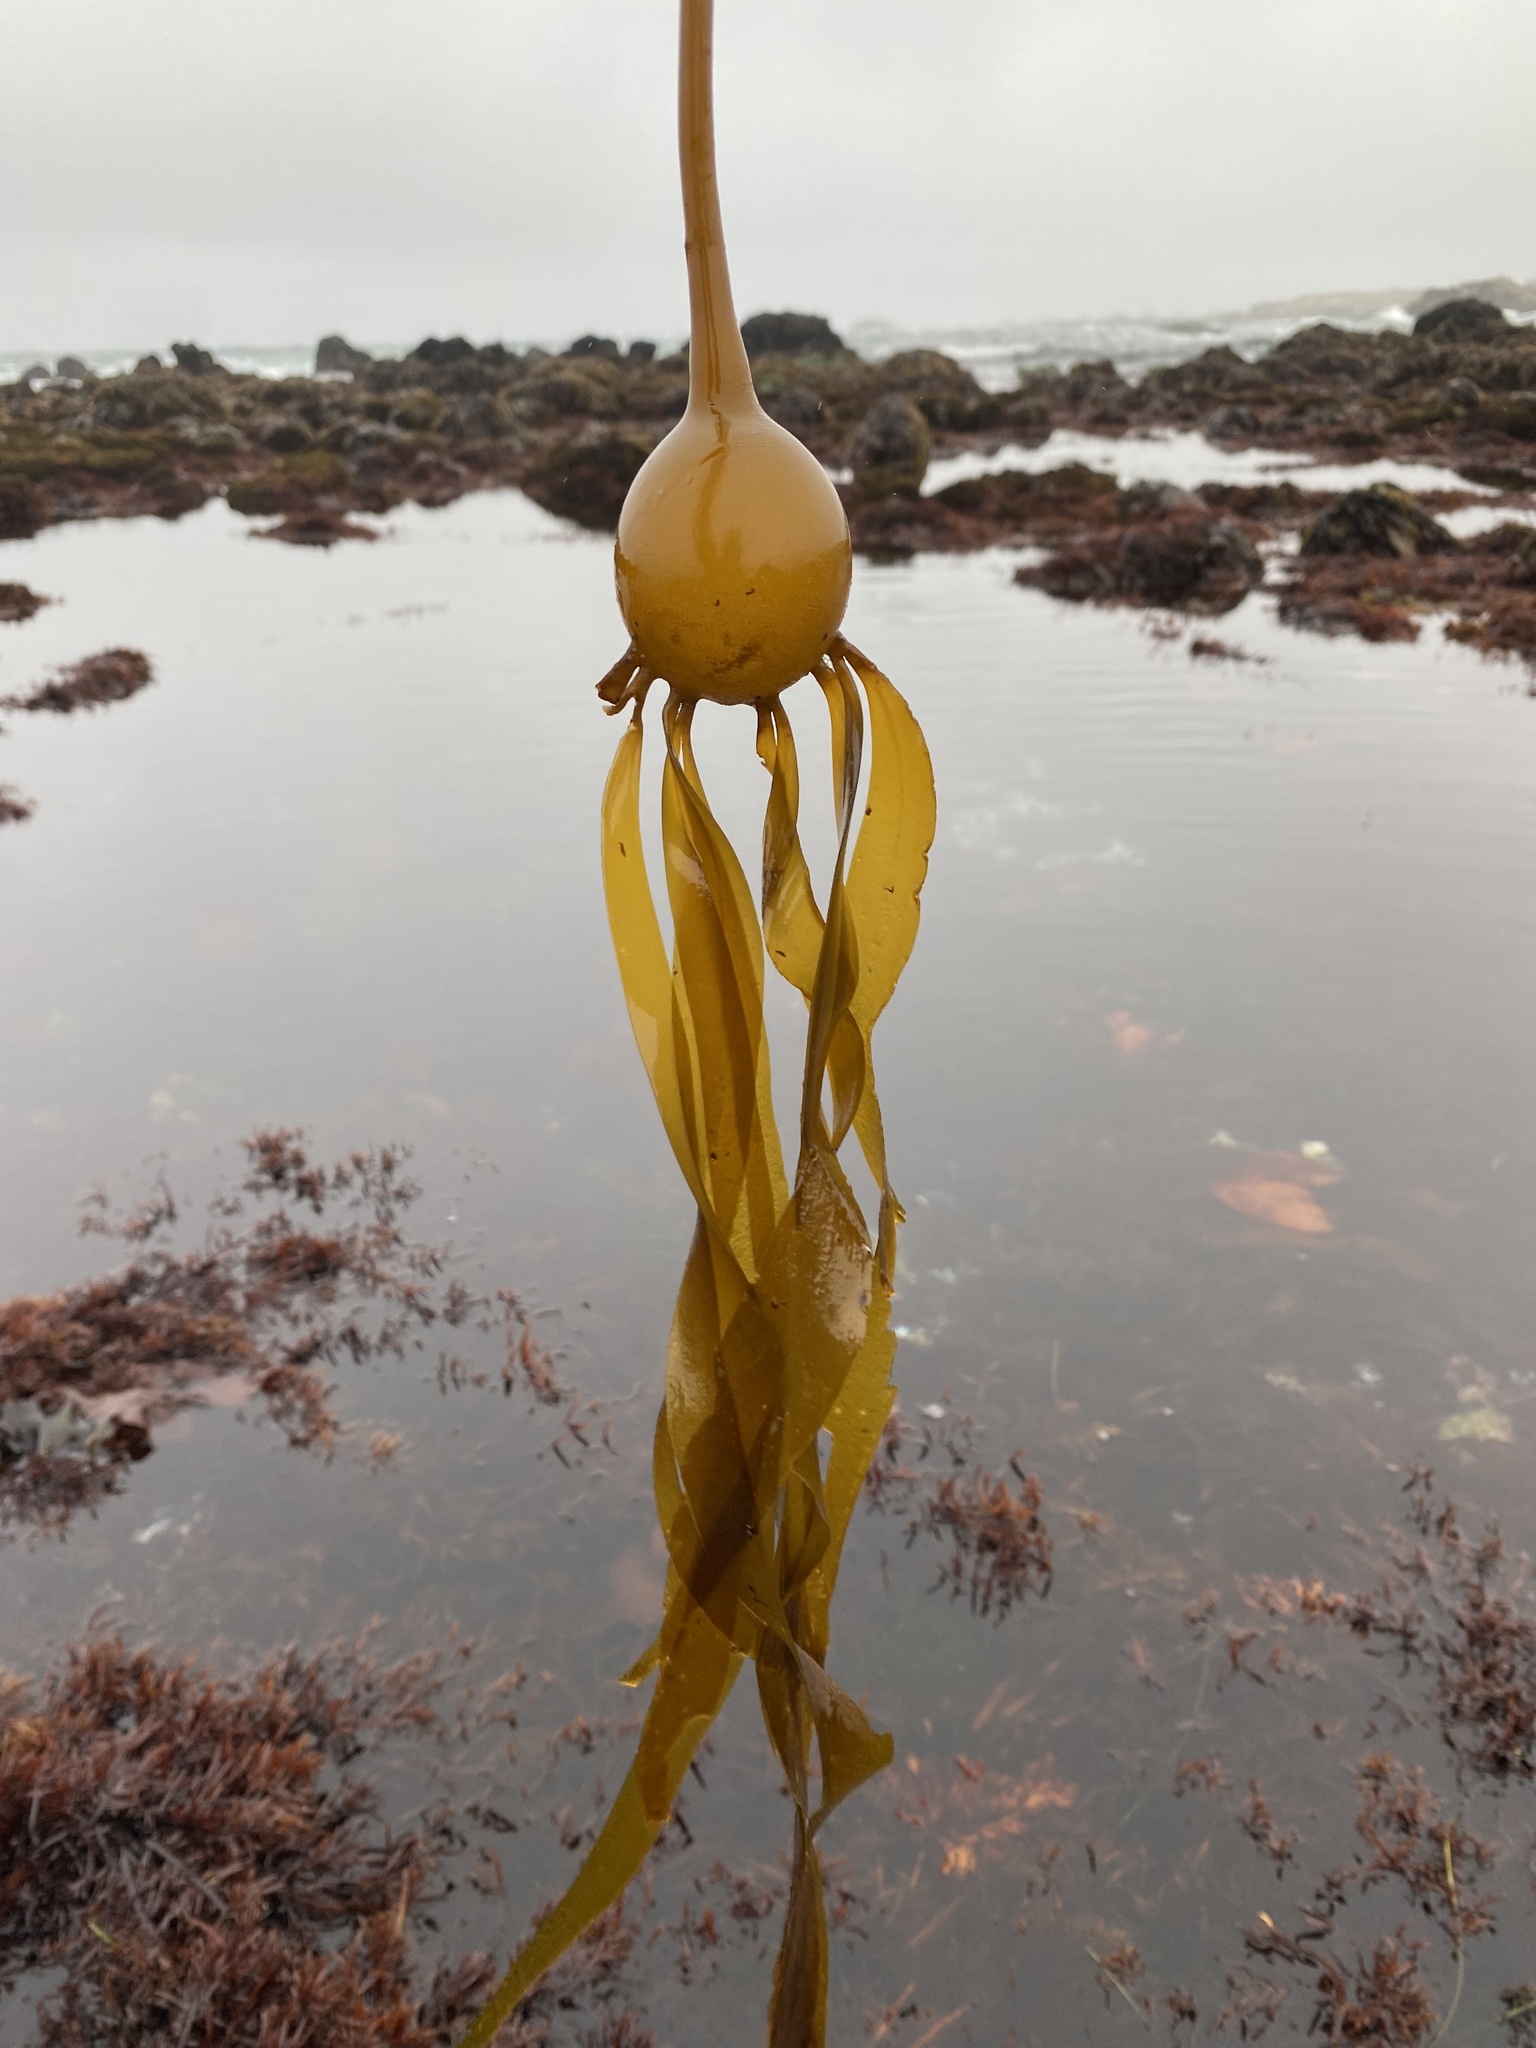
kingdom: Chromista
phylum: Ochrophyta
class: Phaeophyceae
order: Laminariales
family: Laminariaceae
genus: Nereocystis
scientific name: Nereocystis luetkeana
